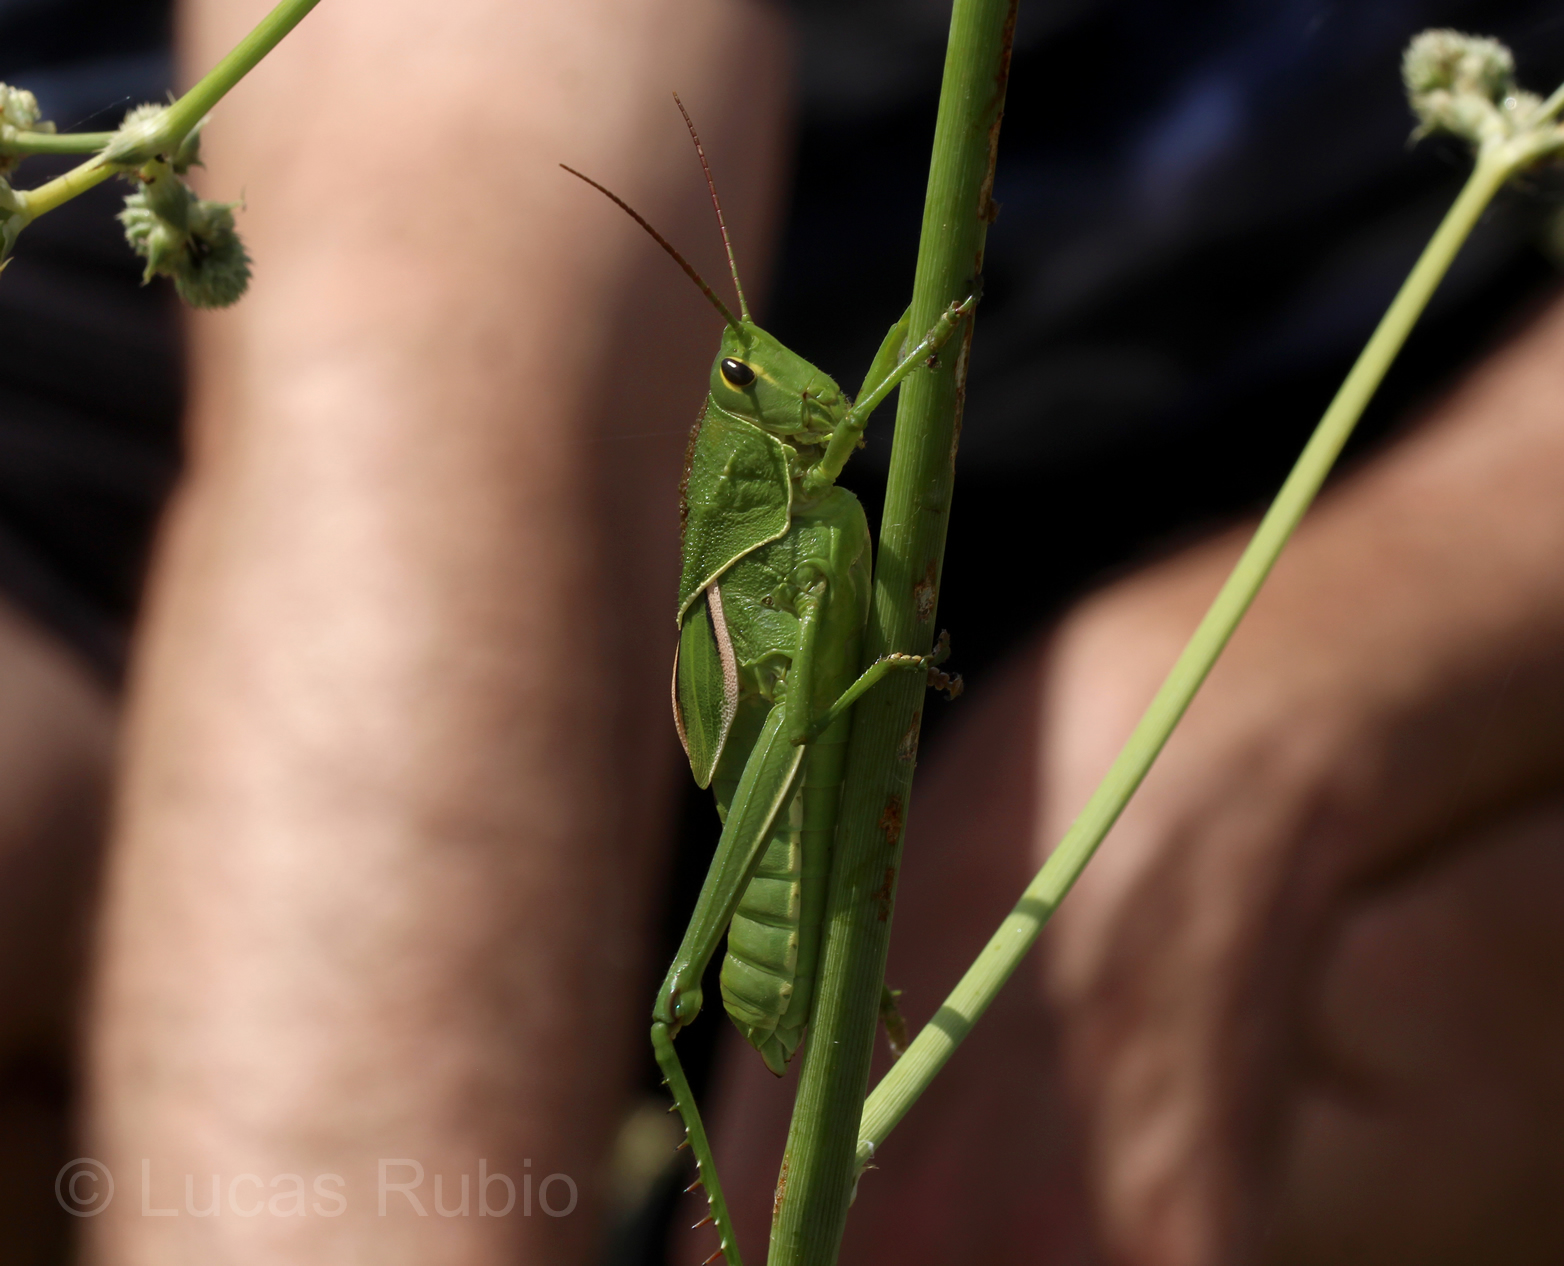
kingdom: Animalia
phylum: Arthropoda
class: Insecta
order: Orthoptera
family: Romaleidae
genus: Staleochlora
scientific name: Staleochlora viridicata
